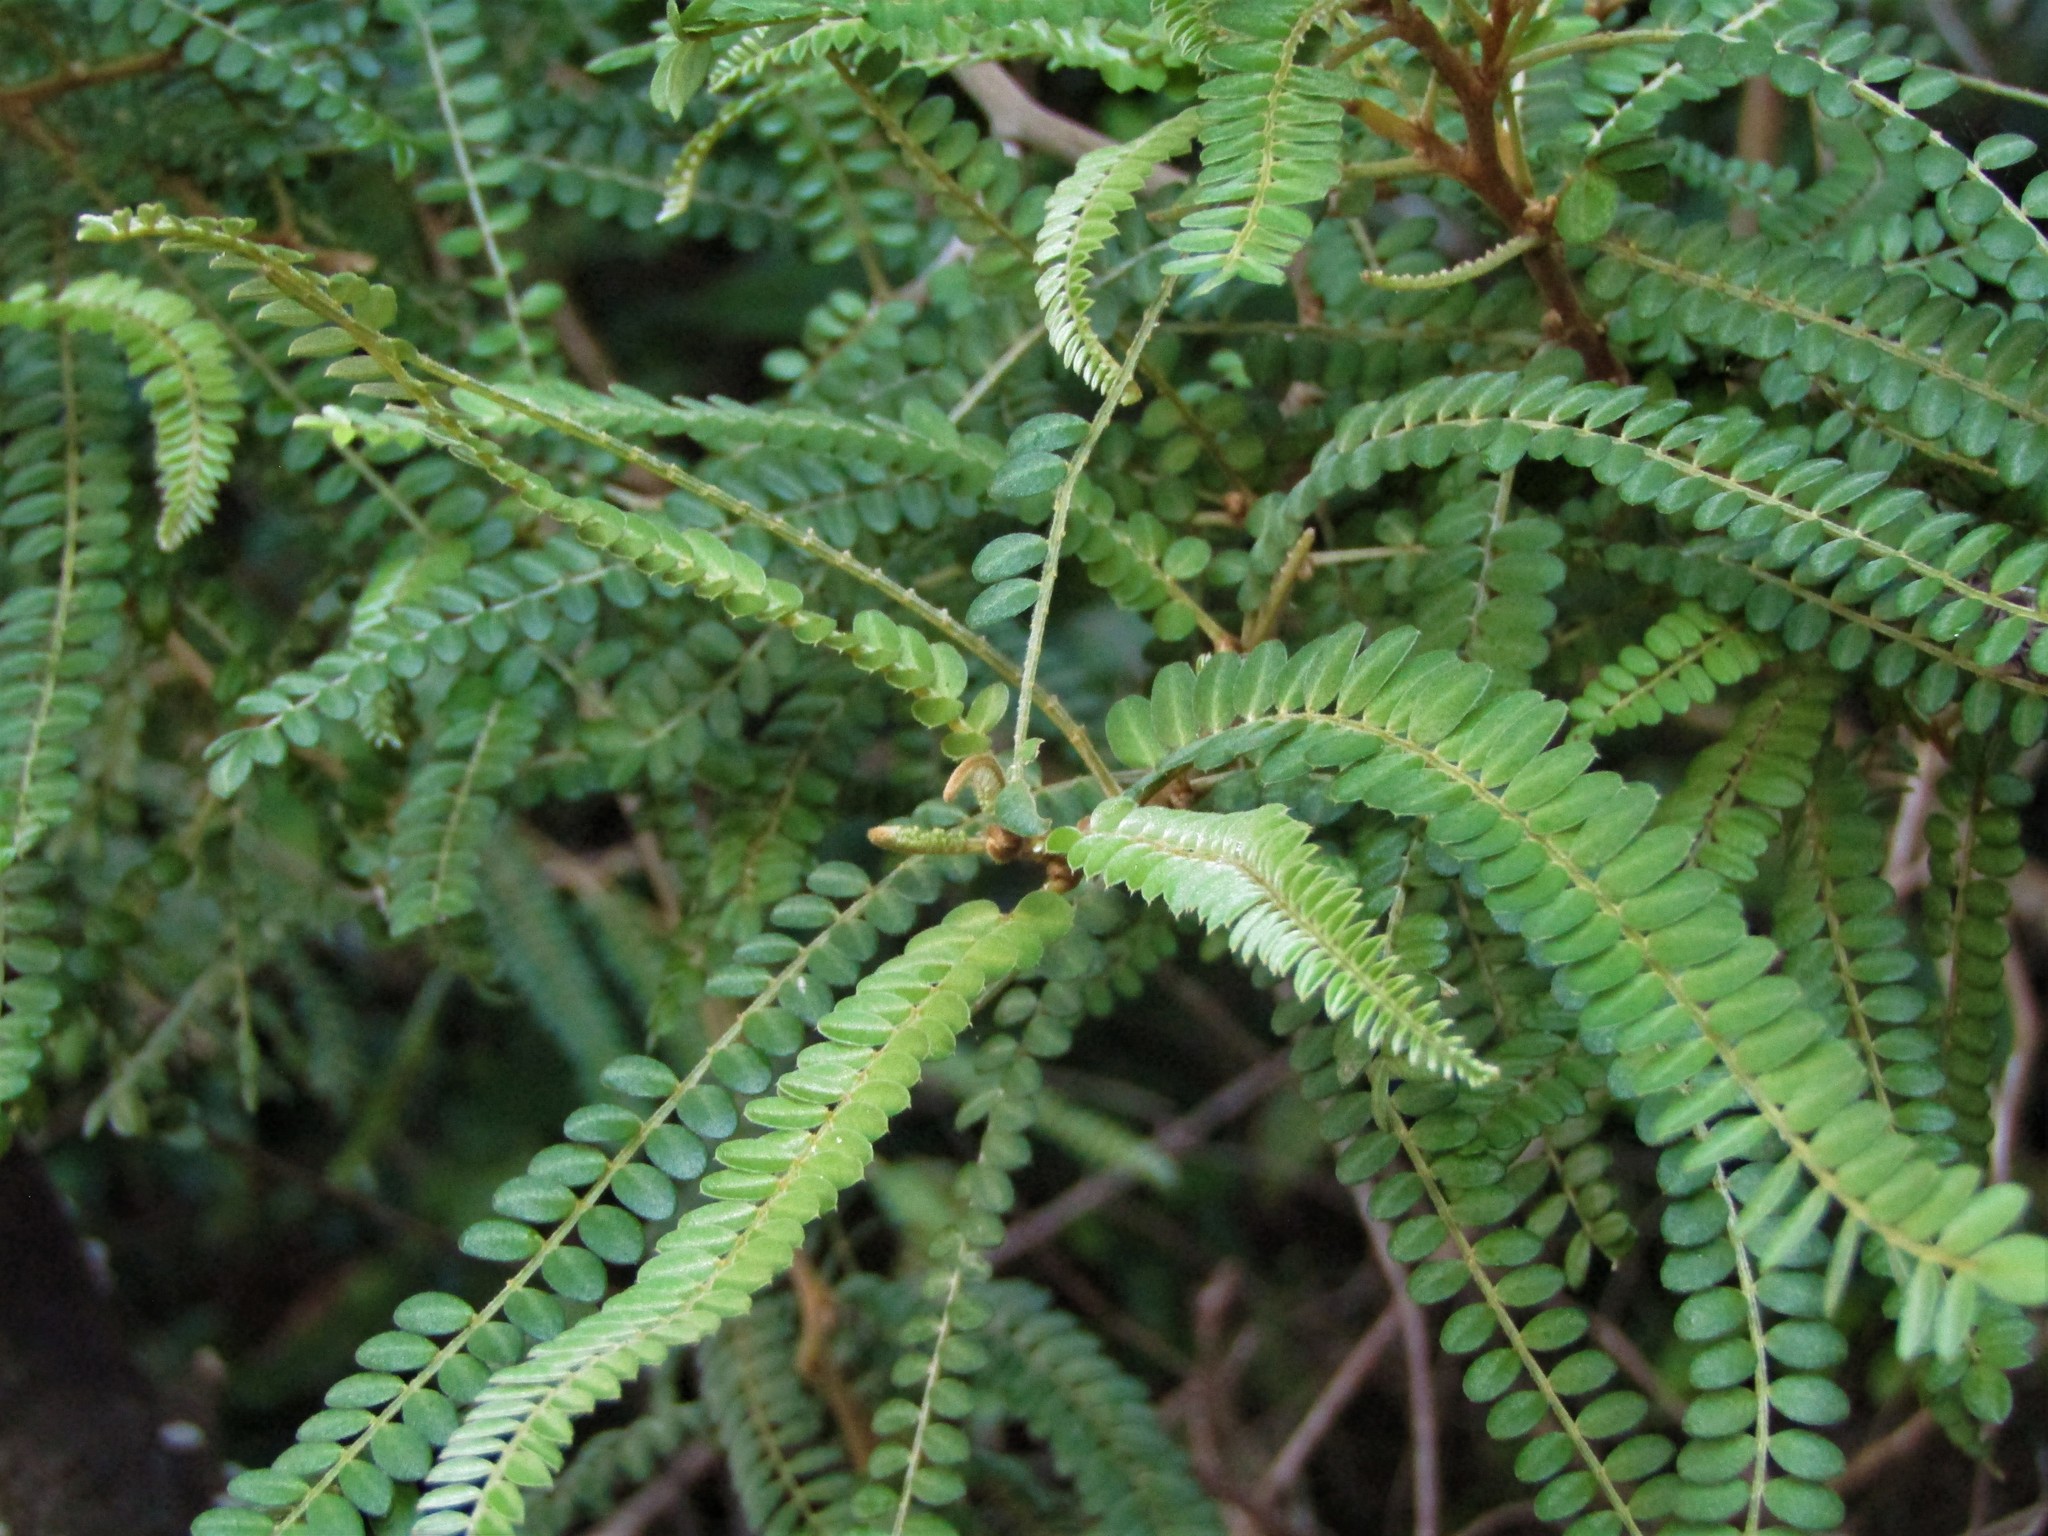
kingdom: Plantae
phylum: Tracheophyta
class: Magnoliopsida
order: Fabales
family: Fabaceae
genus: Sophora
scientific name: Sophora chathamica
